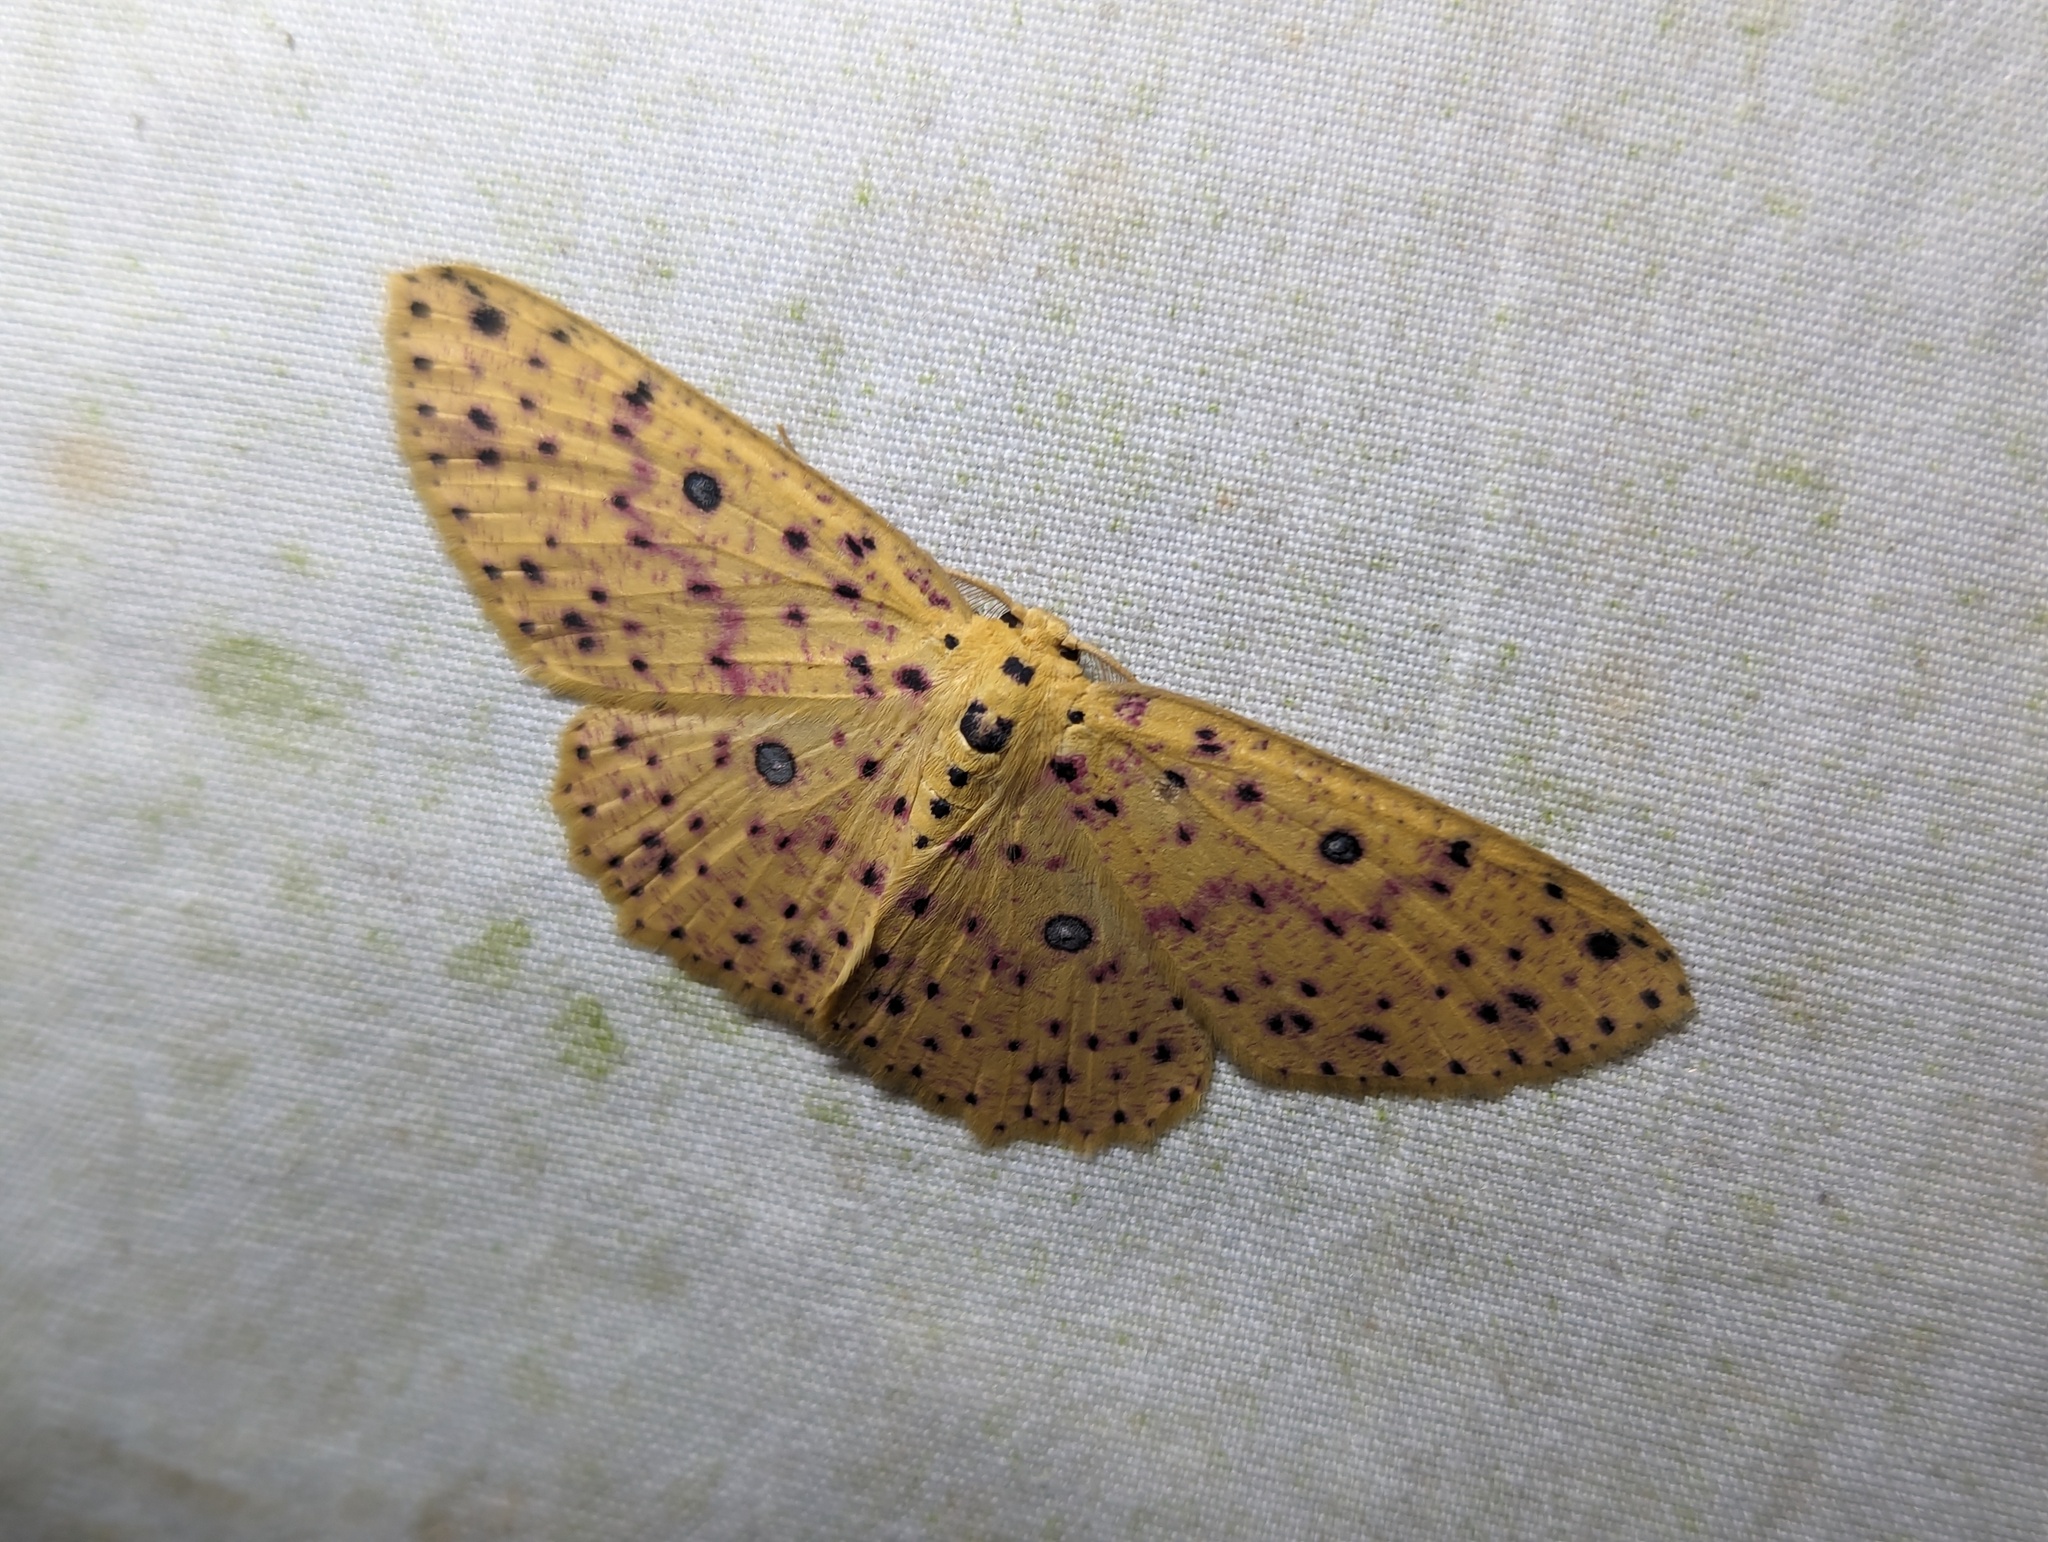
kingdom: Animalia
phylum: Arthropoda
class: Insecta
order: Lepidoptera
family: Geometridae
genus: Cyclophora
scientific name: Cyclophora
